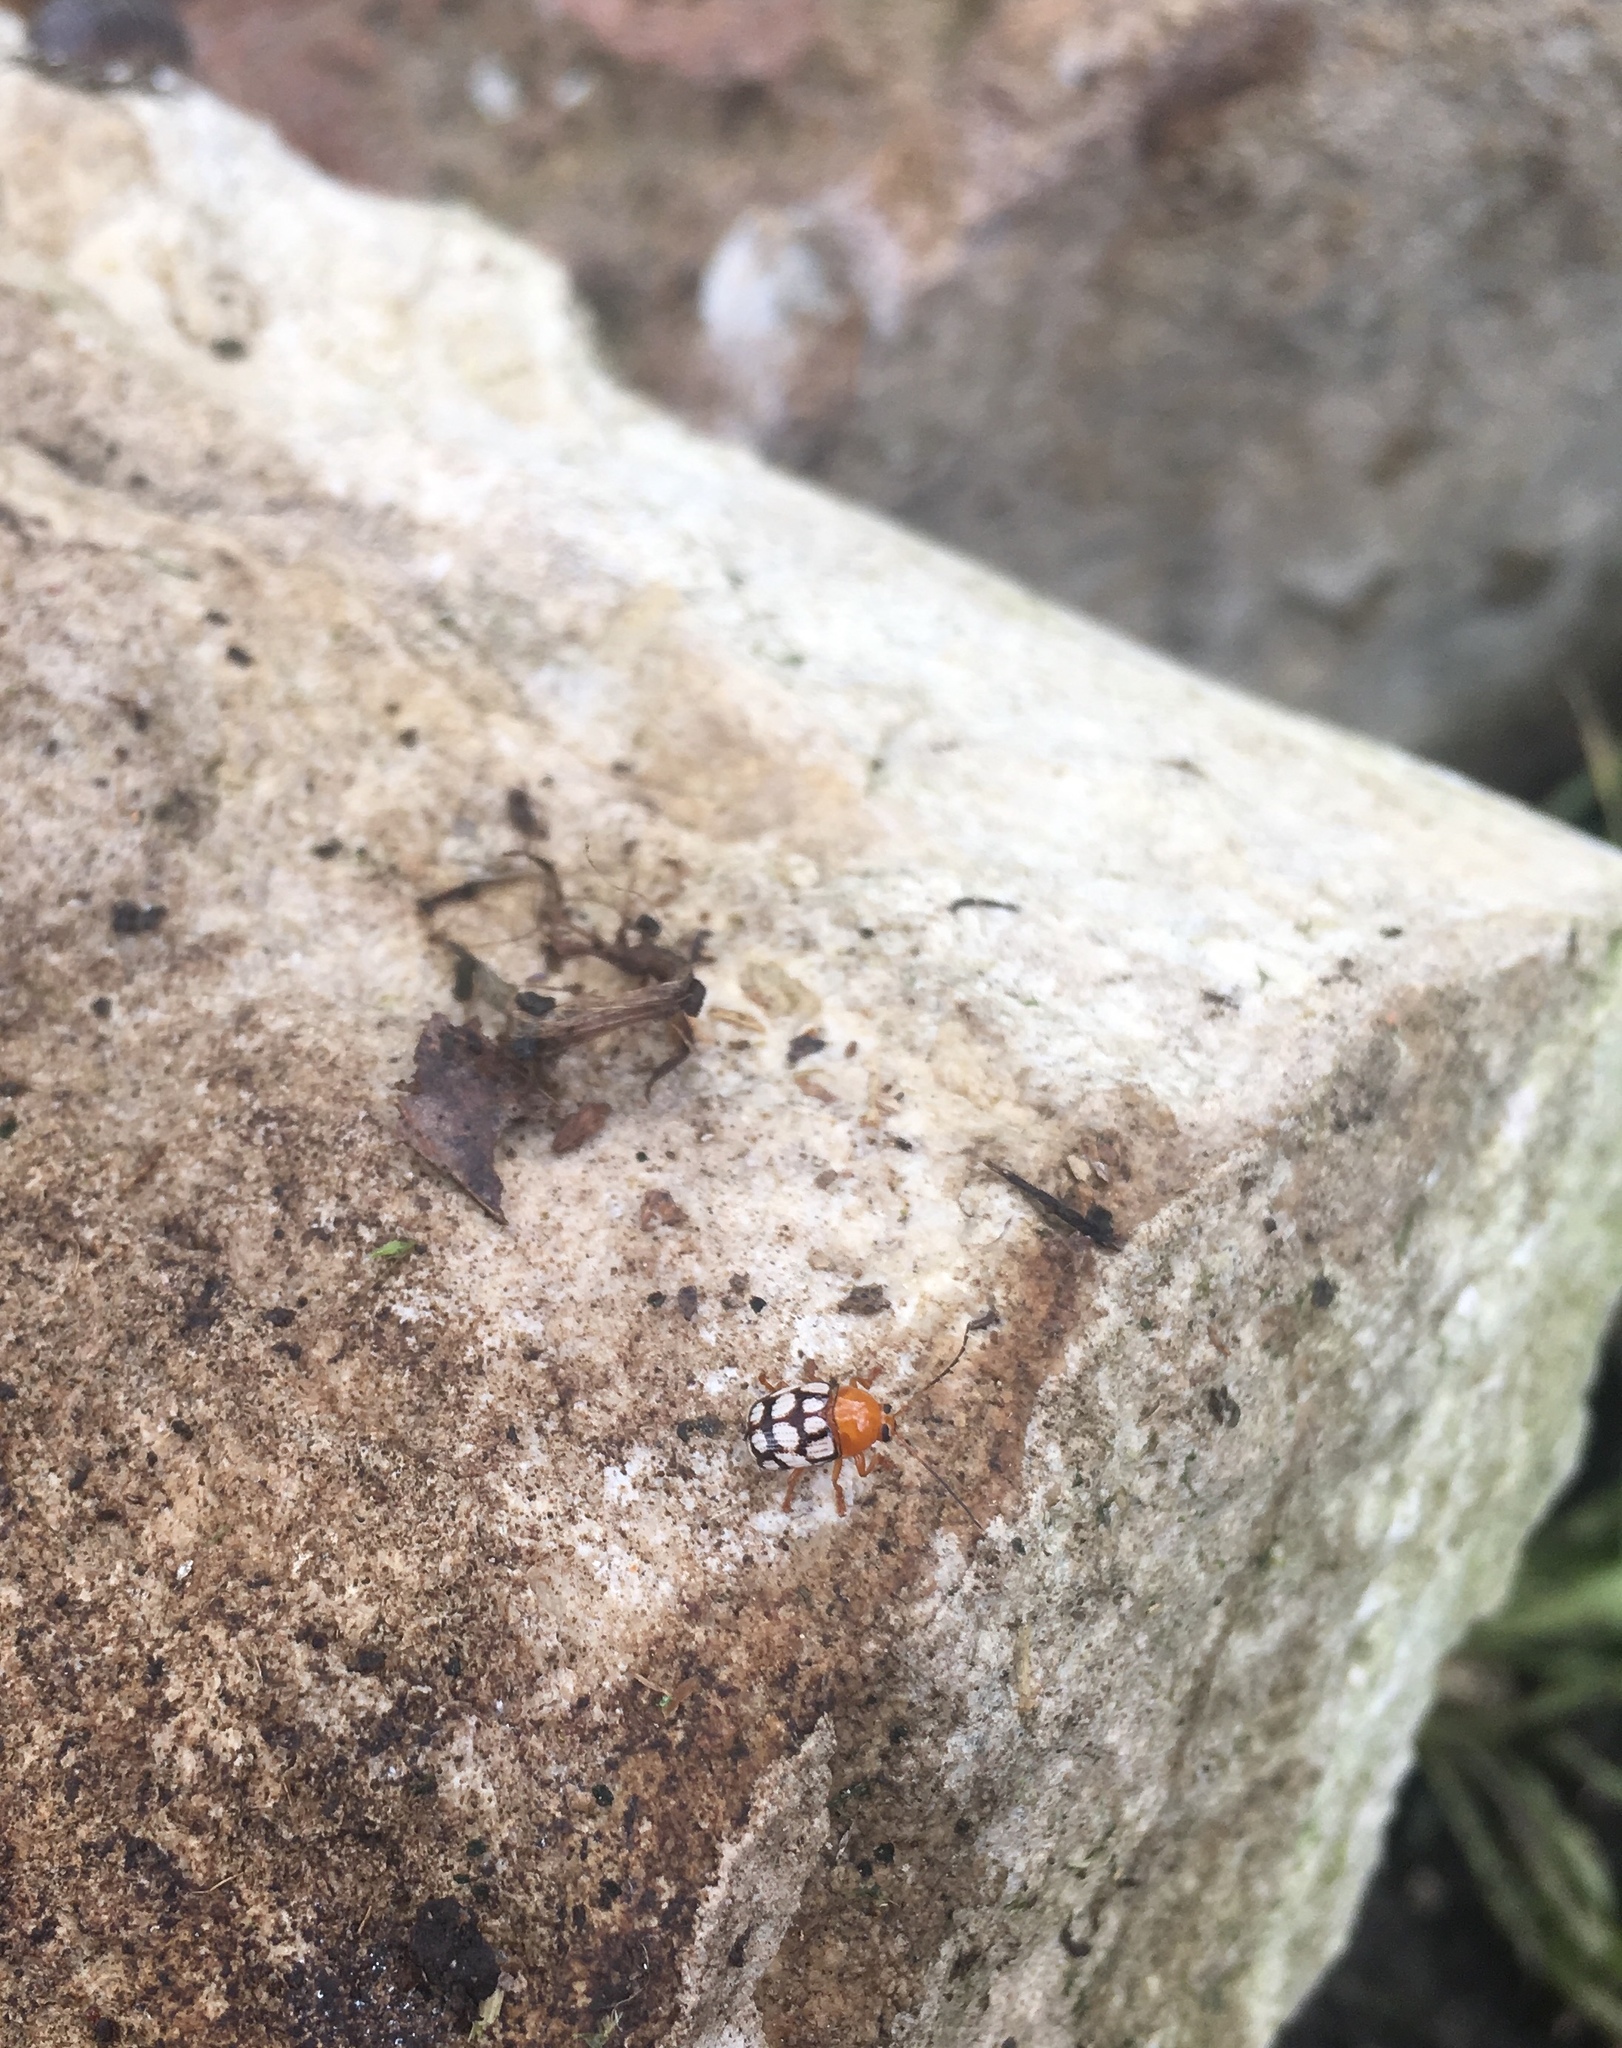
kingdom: Animalia
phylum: Arthropoda
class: Insecta
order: Coleoptera
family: Chrysomelidae
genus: Cryptocephalus
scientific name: Cryptocephalus guttulatus
